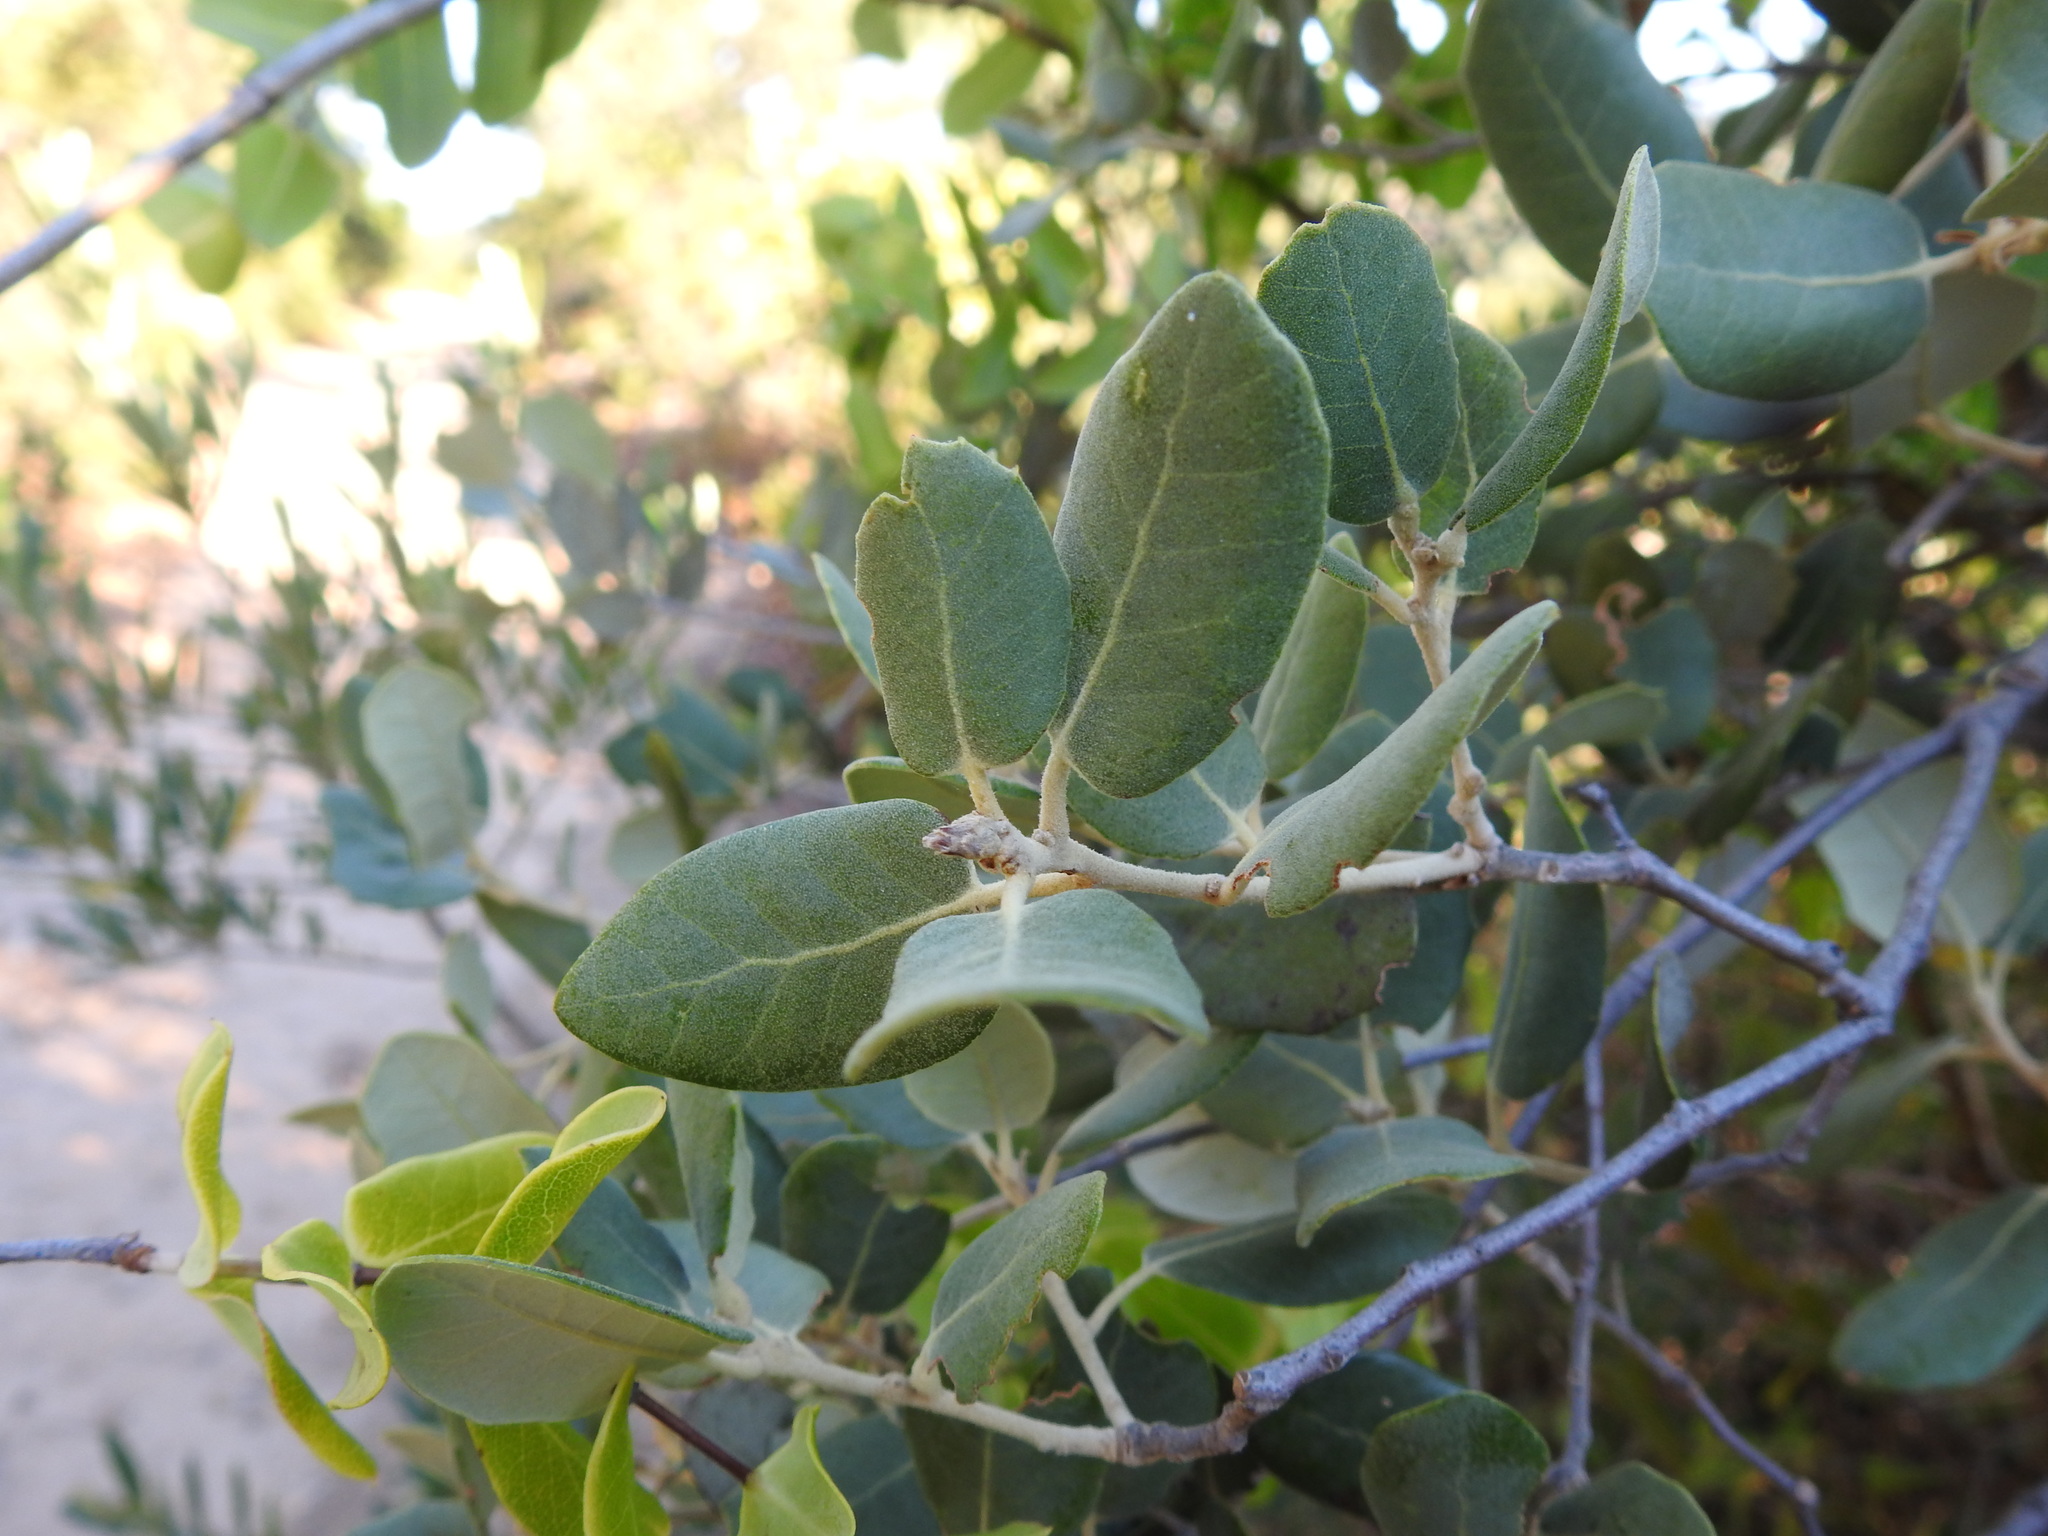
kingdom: Plantae
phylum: Tracheophyta
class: Magnoliopsida
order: Fagales
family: Fagaceae
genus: Quercus
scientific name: Quercus rotundifolia
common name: Holm oak
